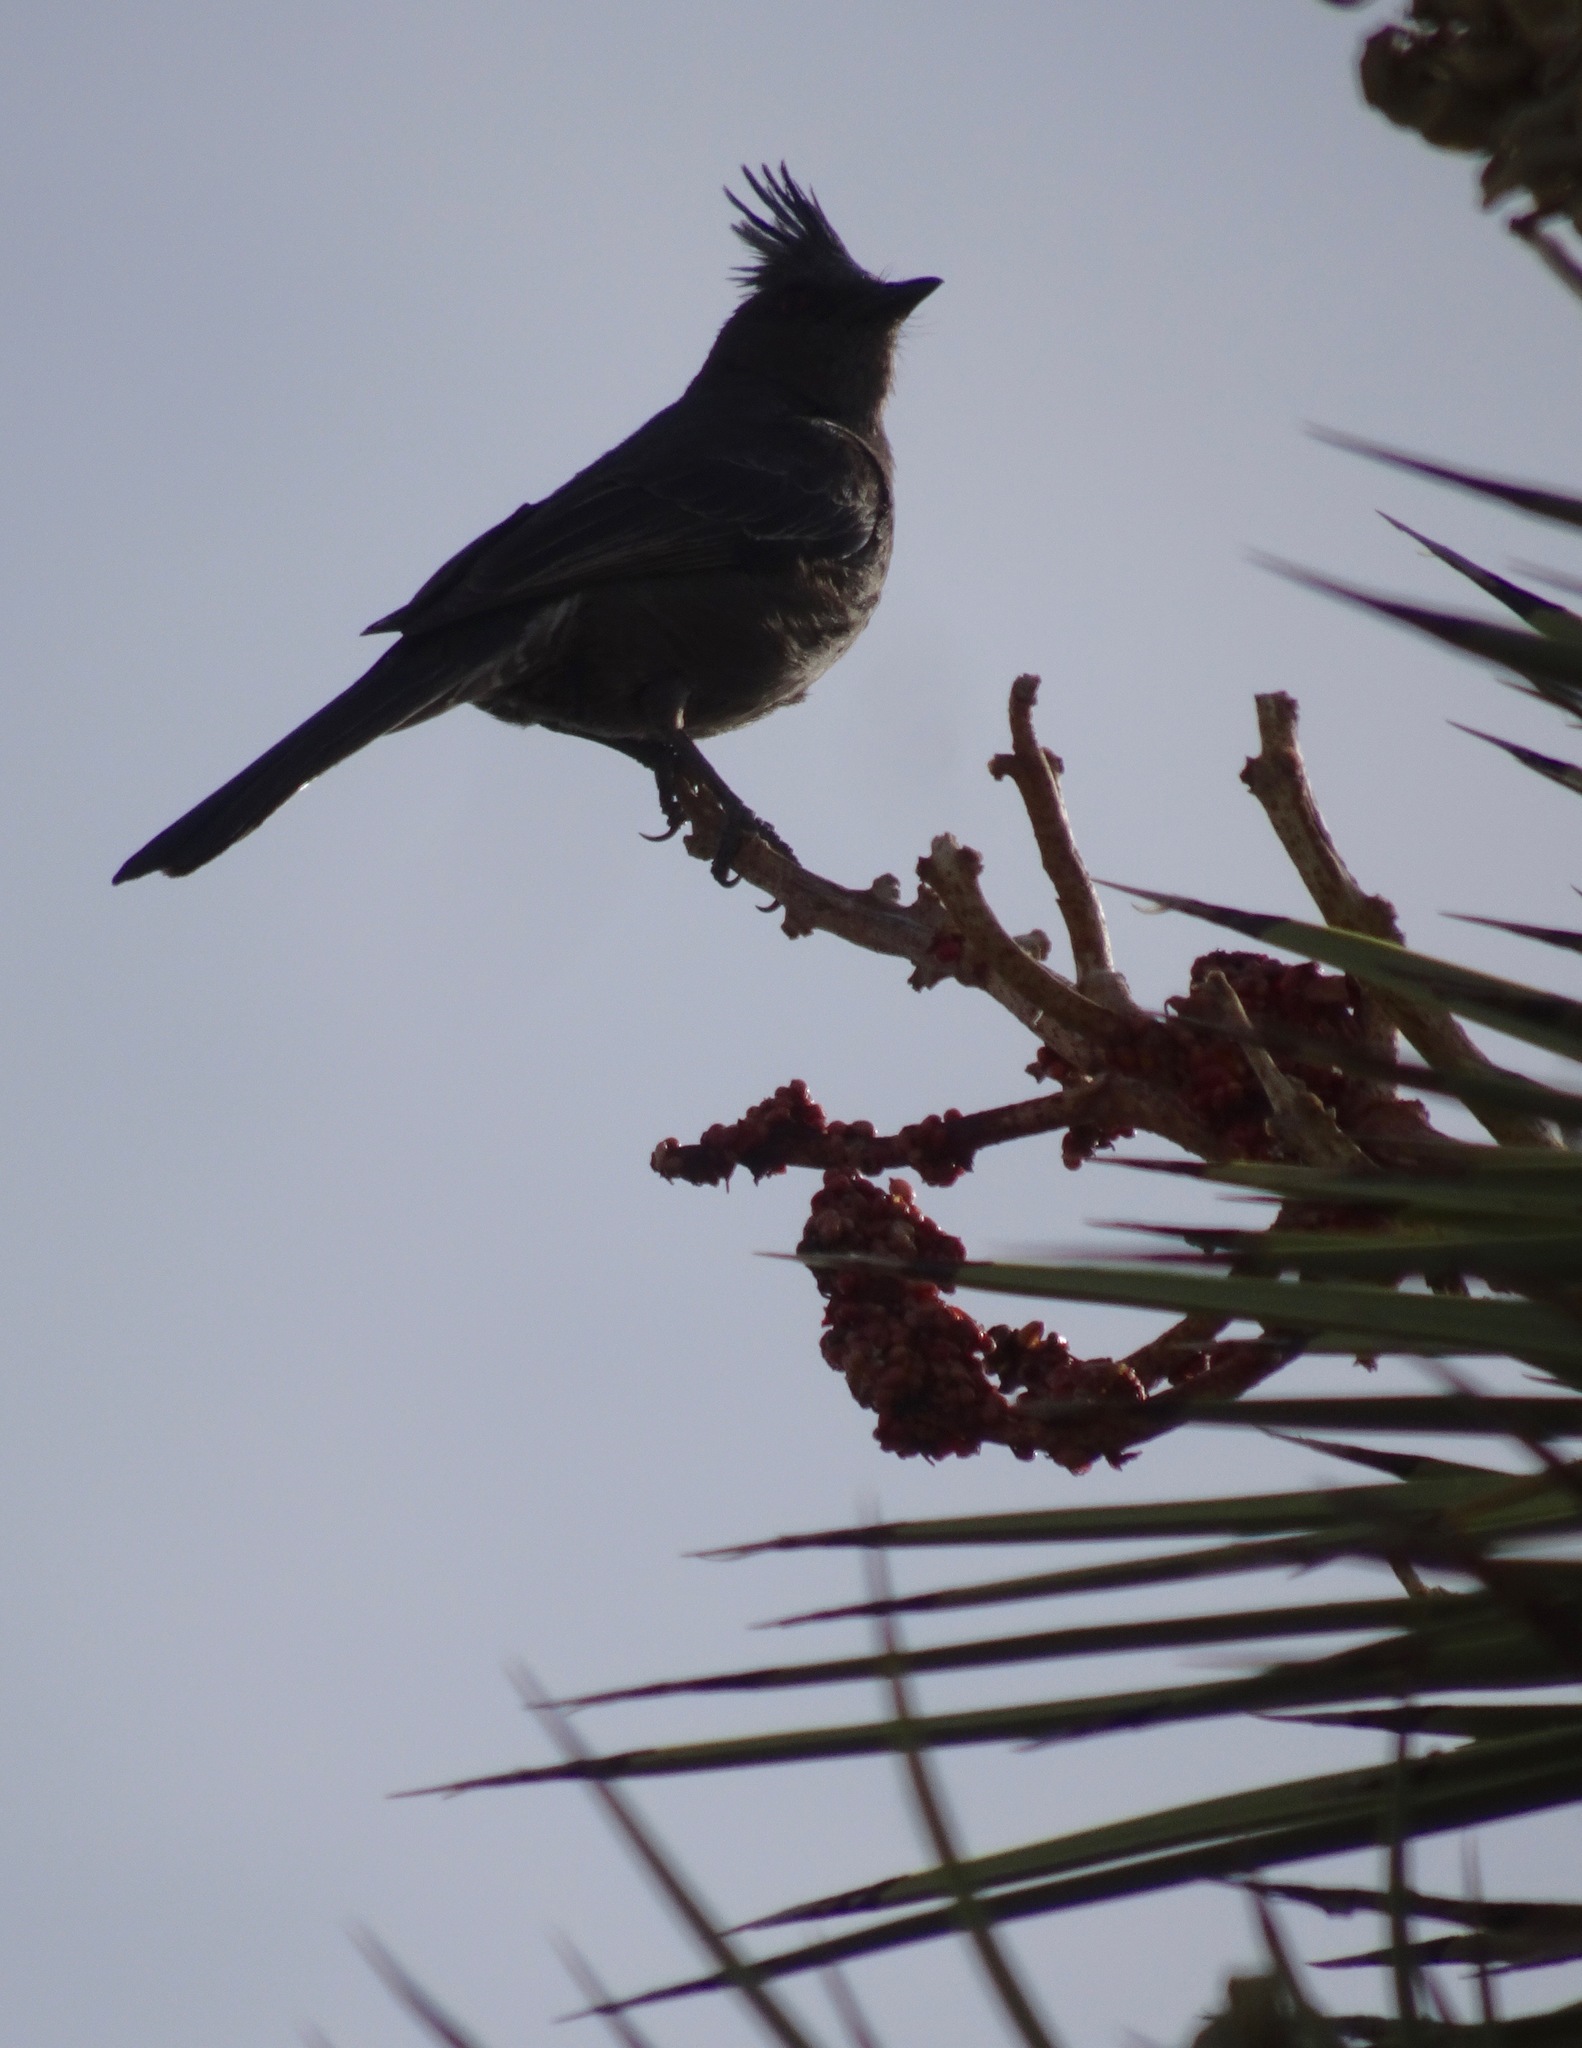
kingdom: Animalia
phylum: Chordata
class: Aves
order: Passeriformes
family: Ptilogonatidae
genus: Phainopepla
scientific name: Phainopepla nitens
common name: Phainopepla
